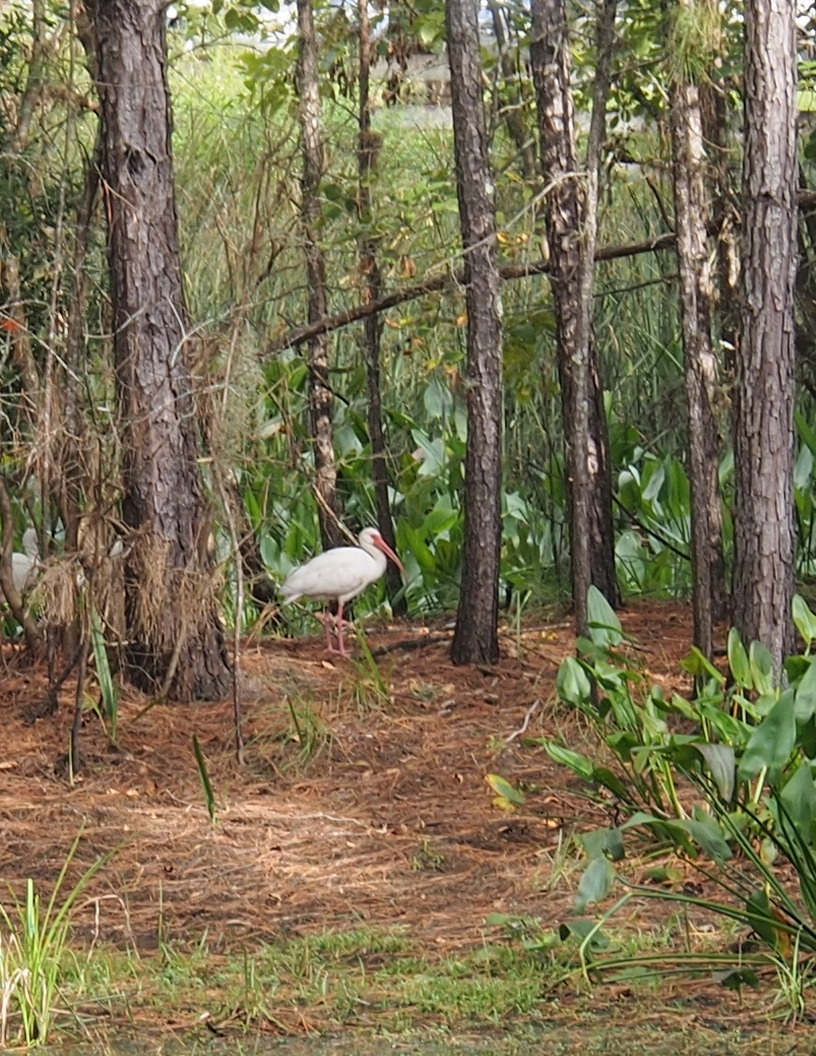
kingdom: Animalia
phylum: Chordata
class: Aves
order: Pelecaniformes
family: Threskiornithidae
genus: Eudocimus
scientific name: Eudocimus albus
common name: White ibis
